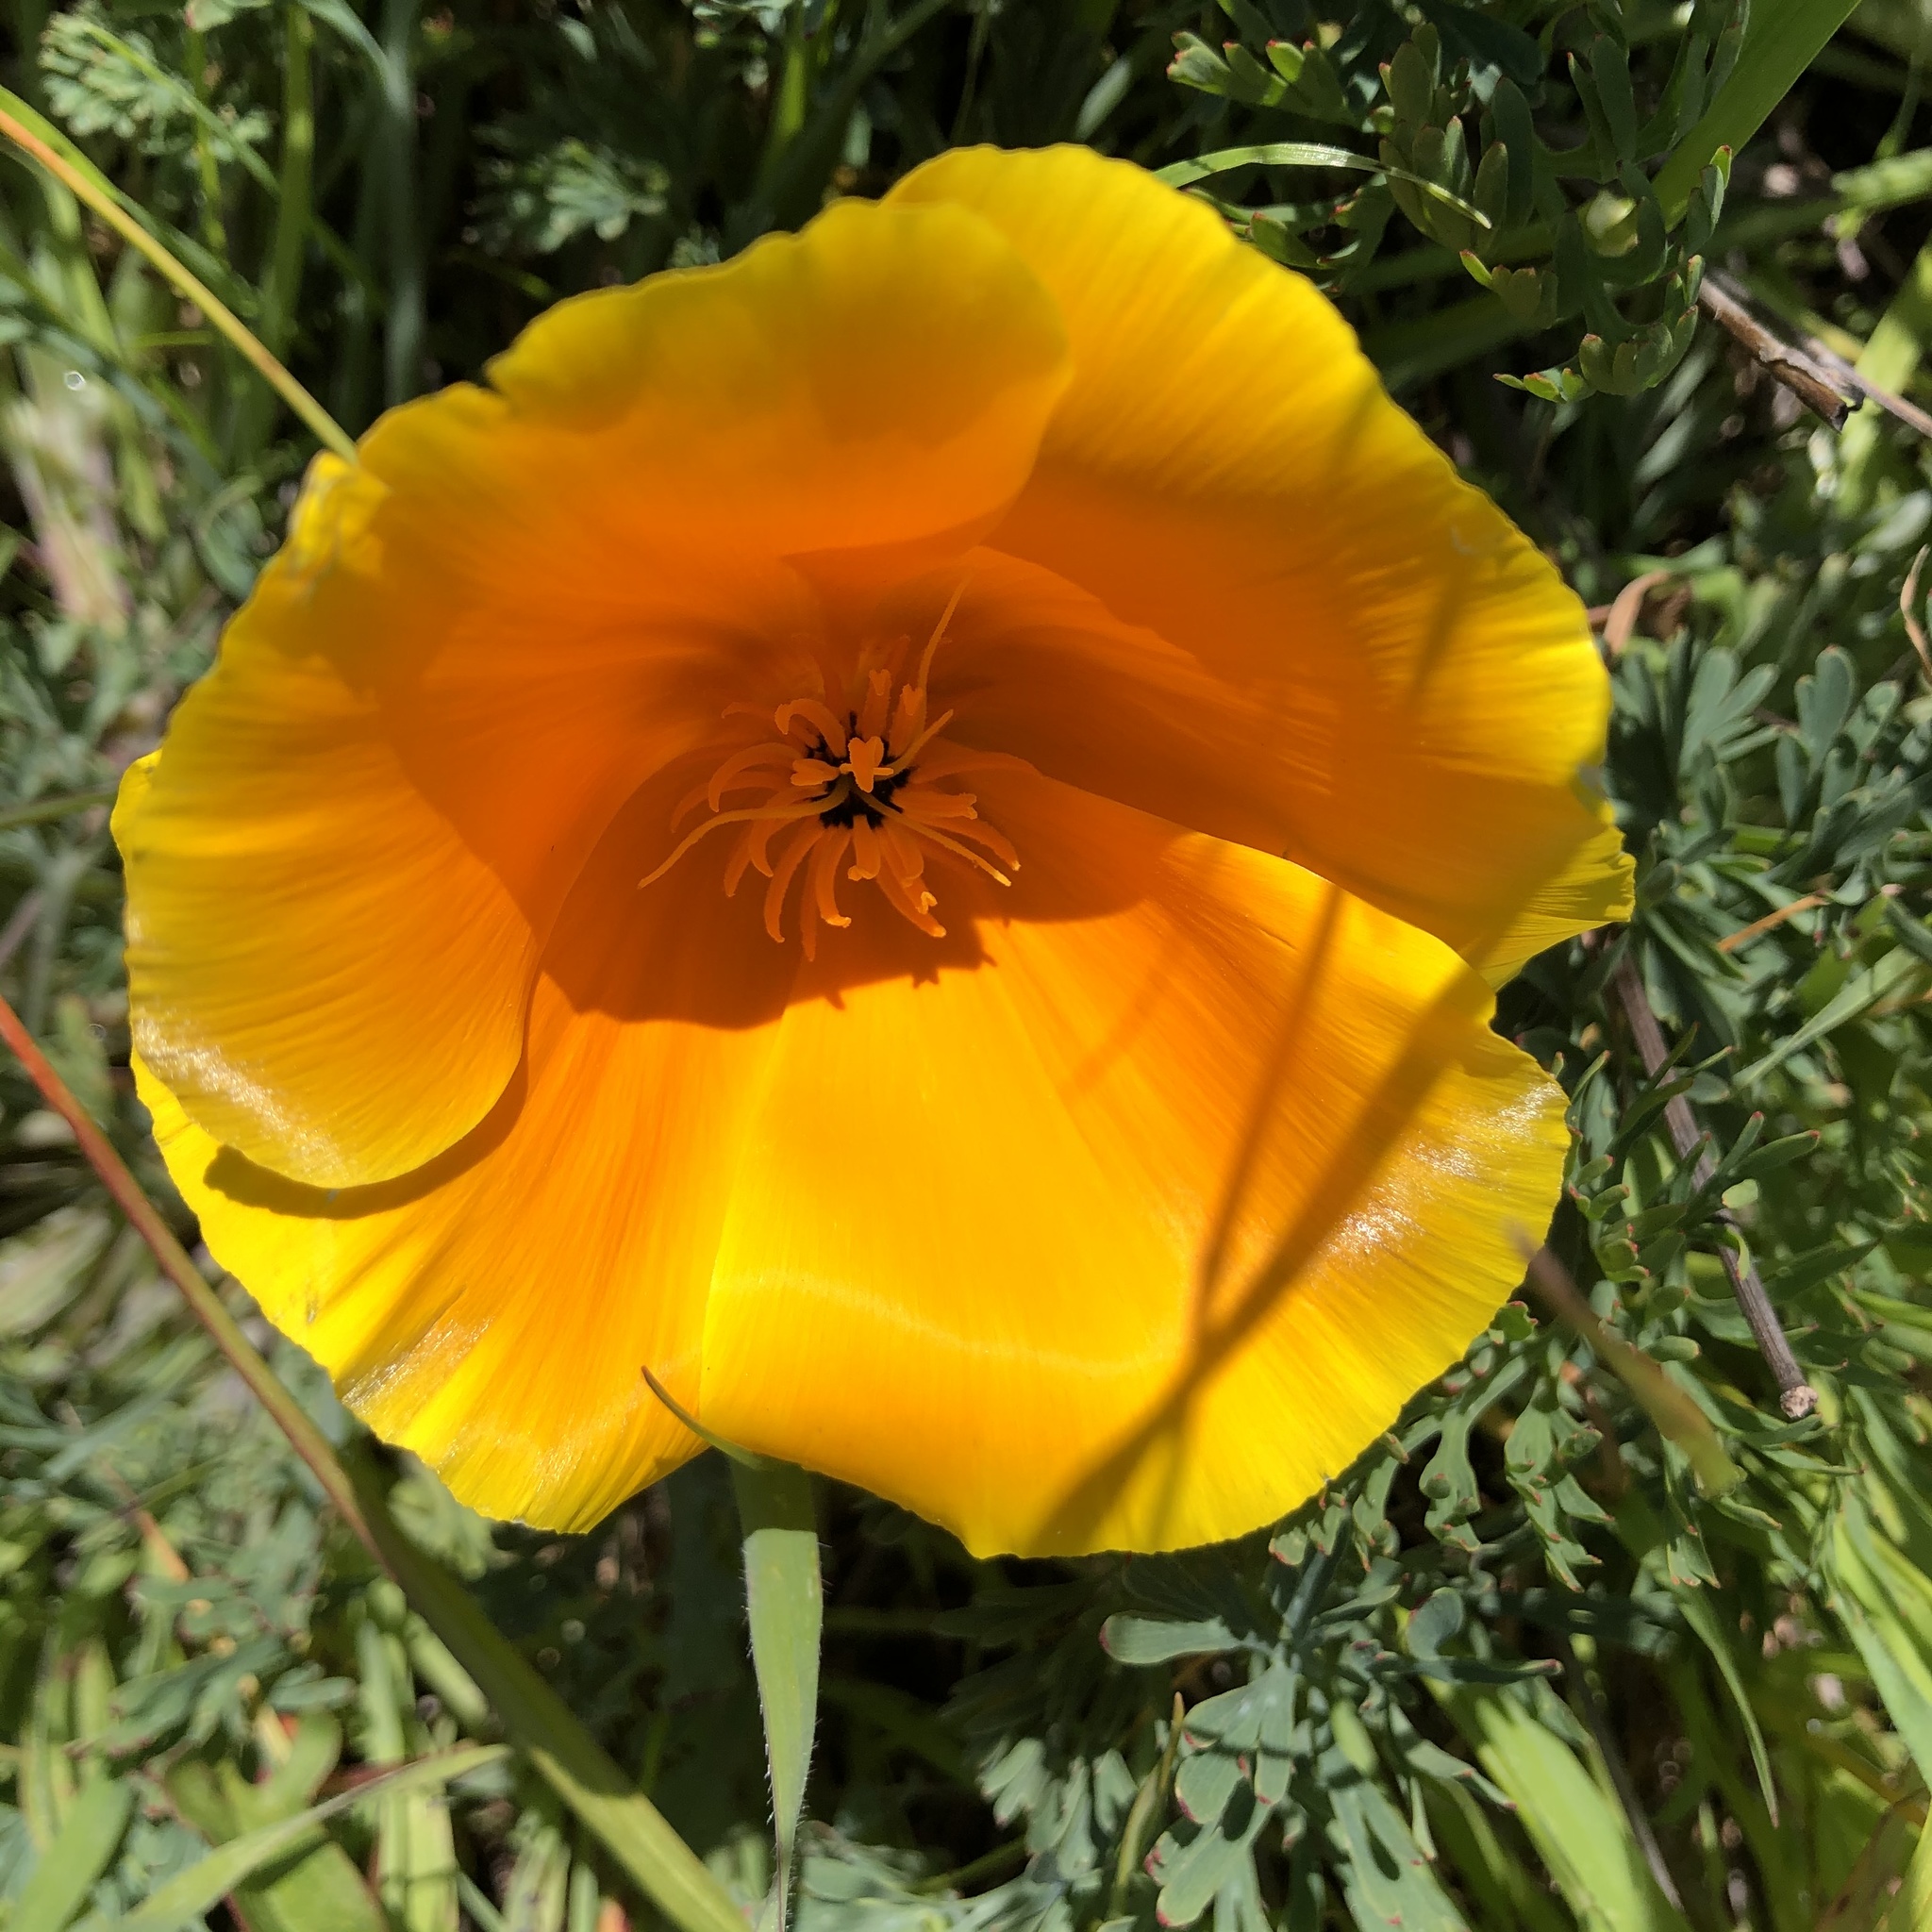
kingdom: Plantae
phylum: Tracheophyta
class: Magnoliopsida
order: Ranunculales
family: Papaveraceae
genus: Eschscholzia
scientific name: Eschscholzia californica
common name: California poppy
